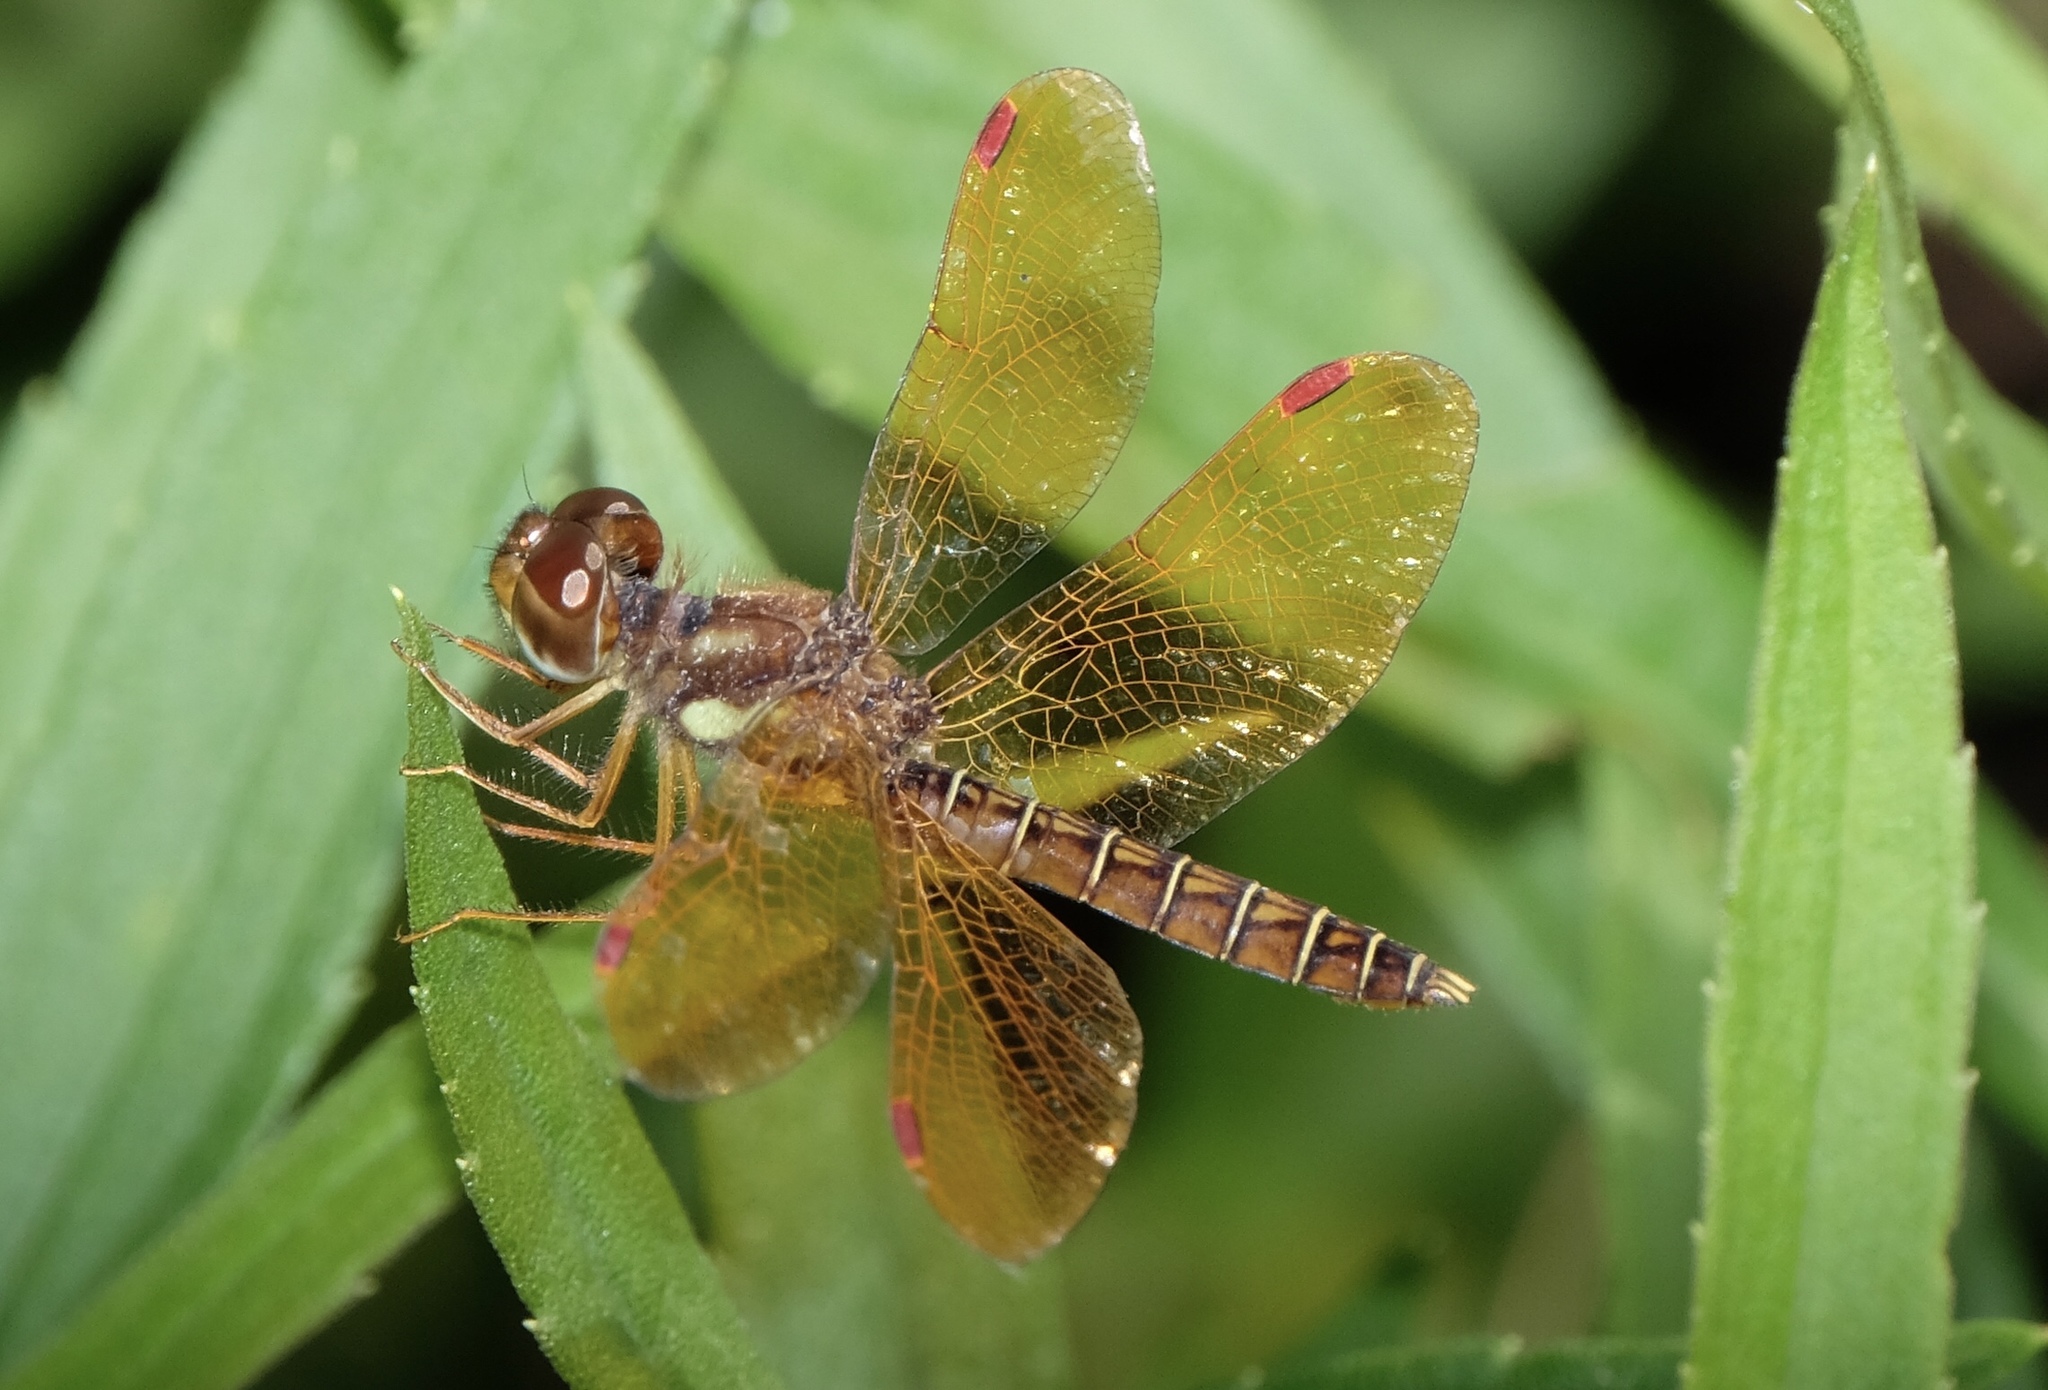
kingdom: Animalia
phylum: Arthropoda
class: Insecta
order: Odonata
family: Libellulidae
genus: Perithemis
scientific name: Perithemis tenera
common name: Eastern amberwing
